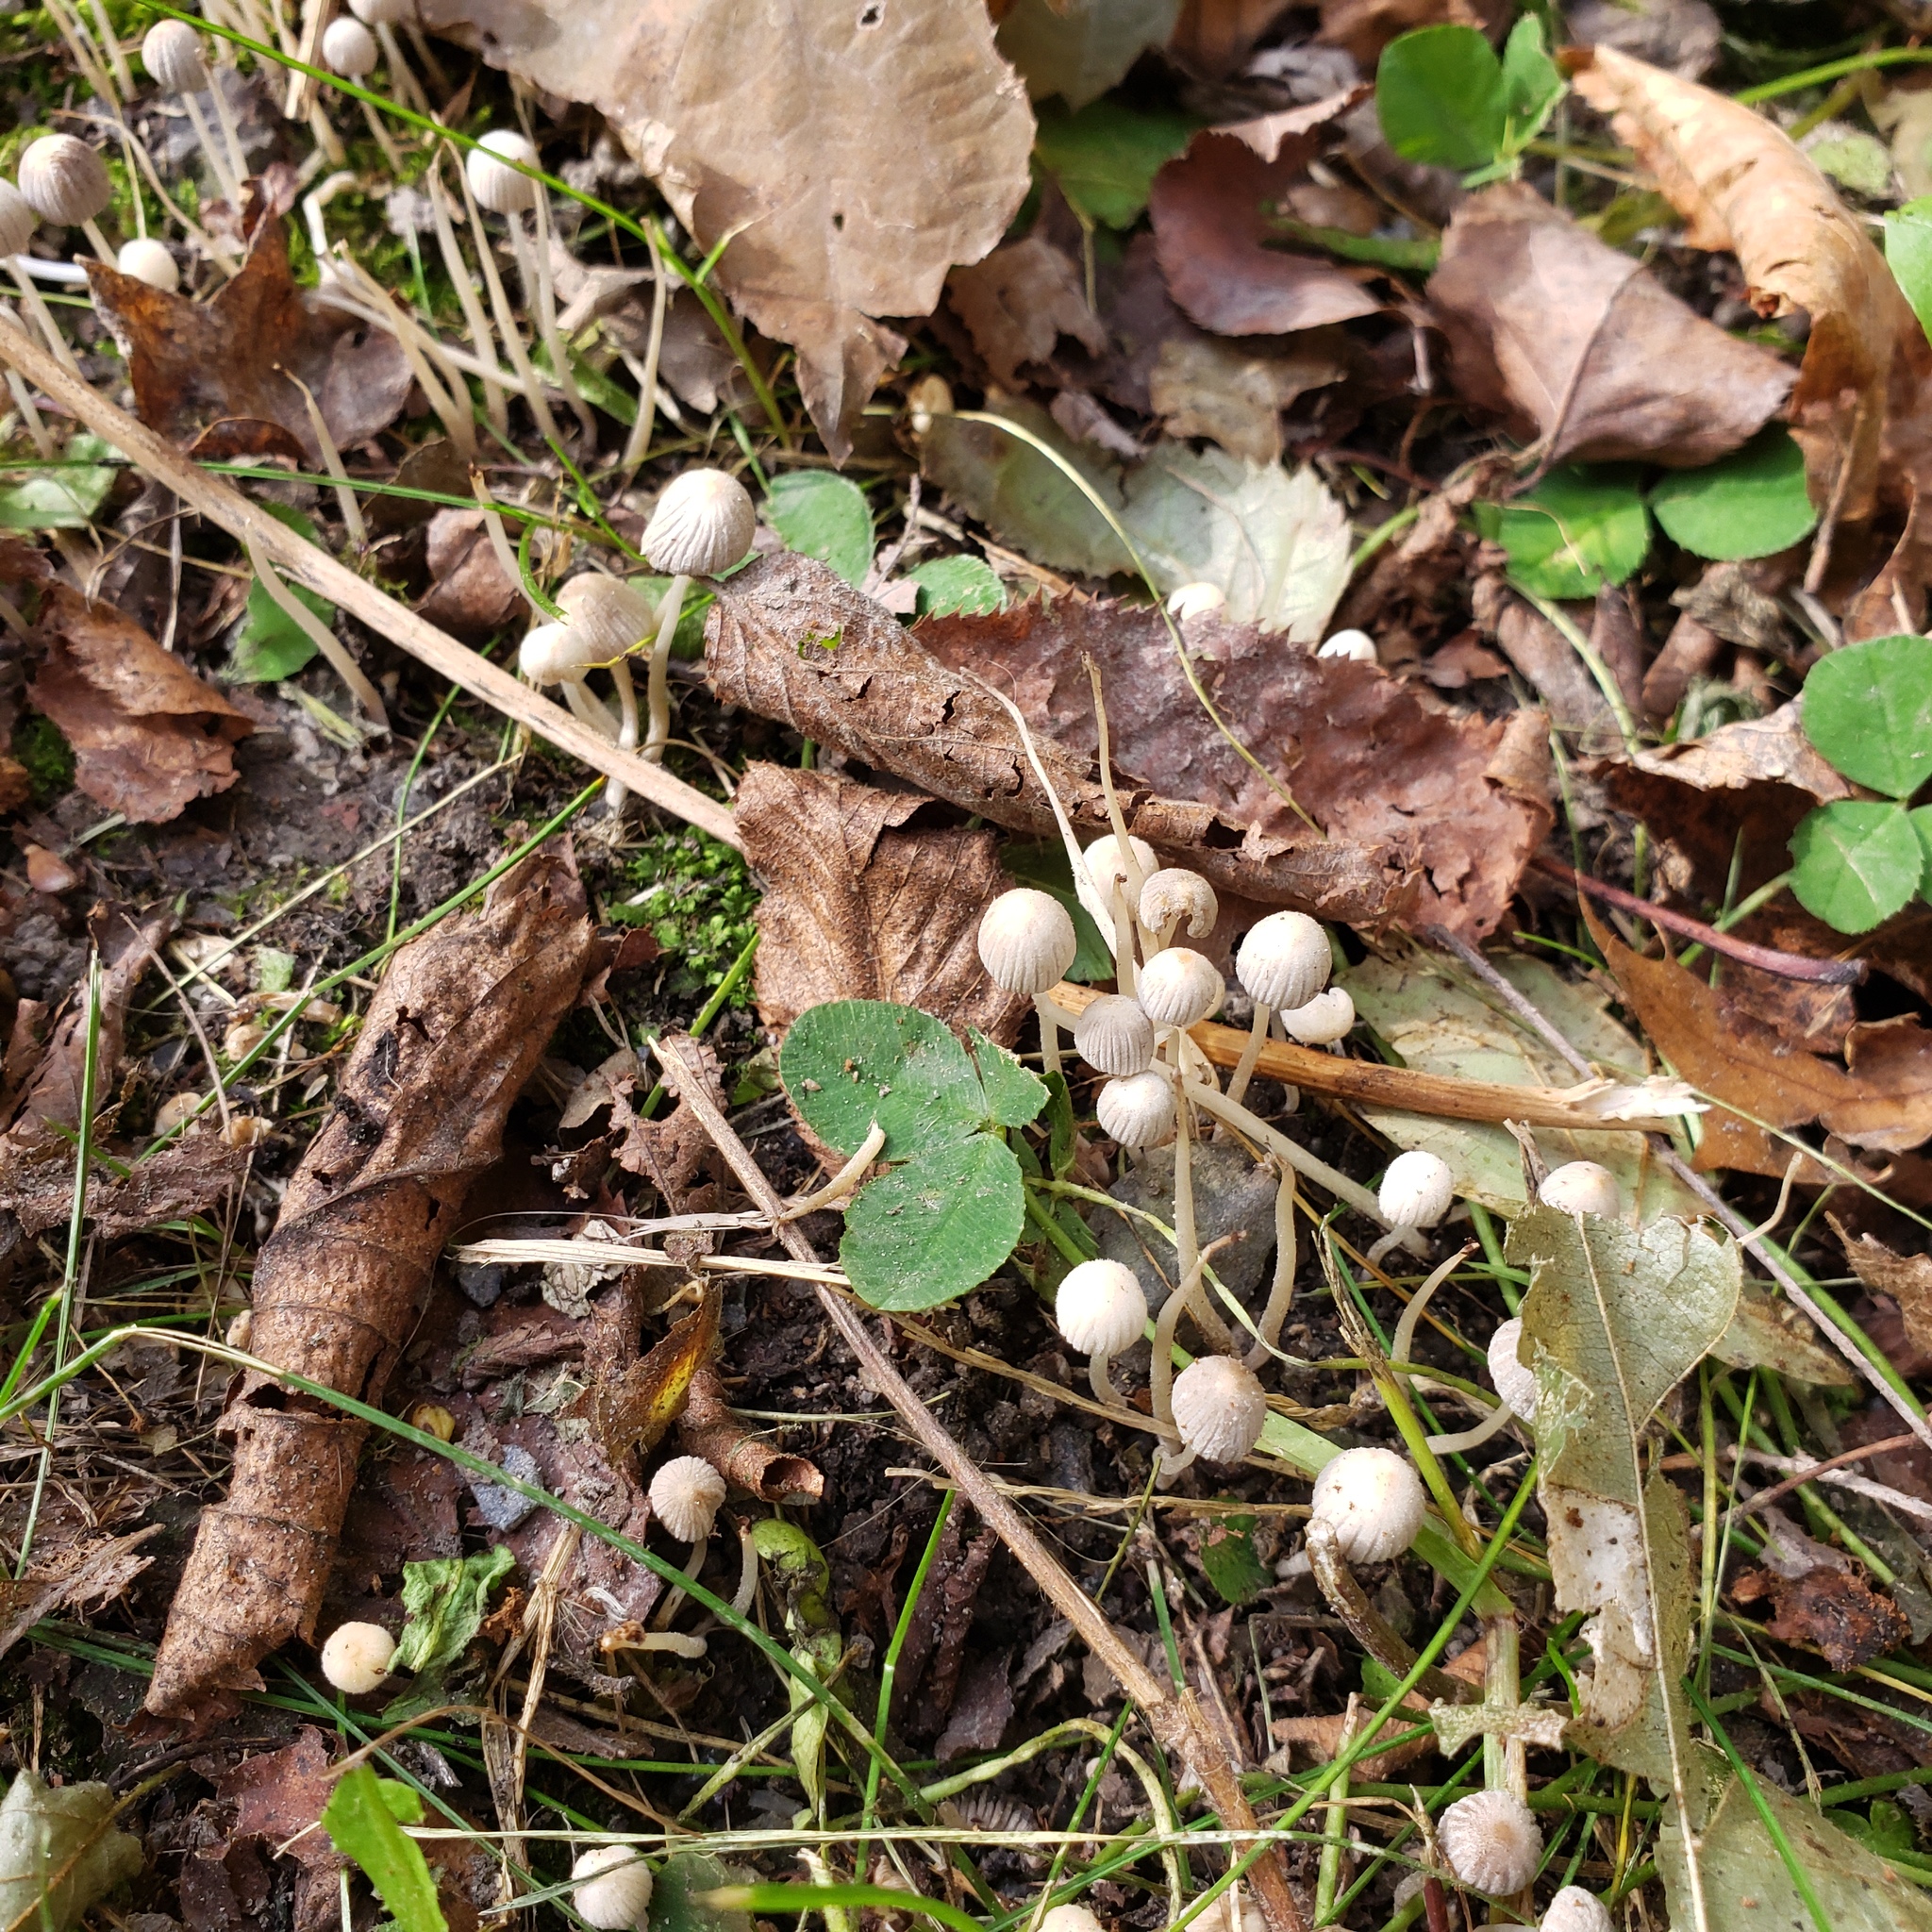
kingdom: Fungi
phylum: Basidiomycota
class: Agaricomycetes
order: Agaricales
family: Psathyrellaceae
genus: Coprinellus
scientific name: Coprinellus disseminatus
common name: Fairies' bonnets
